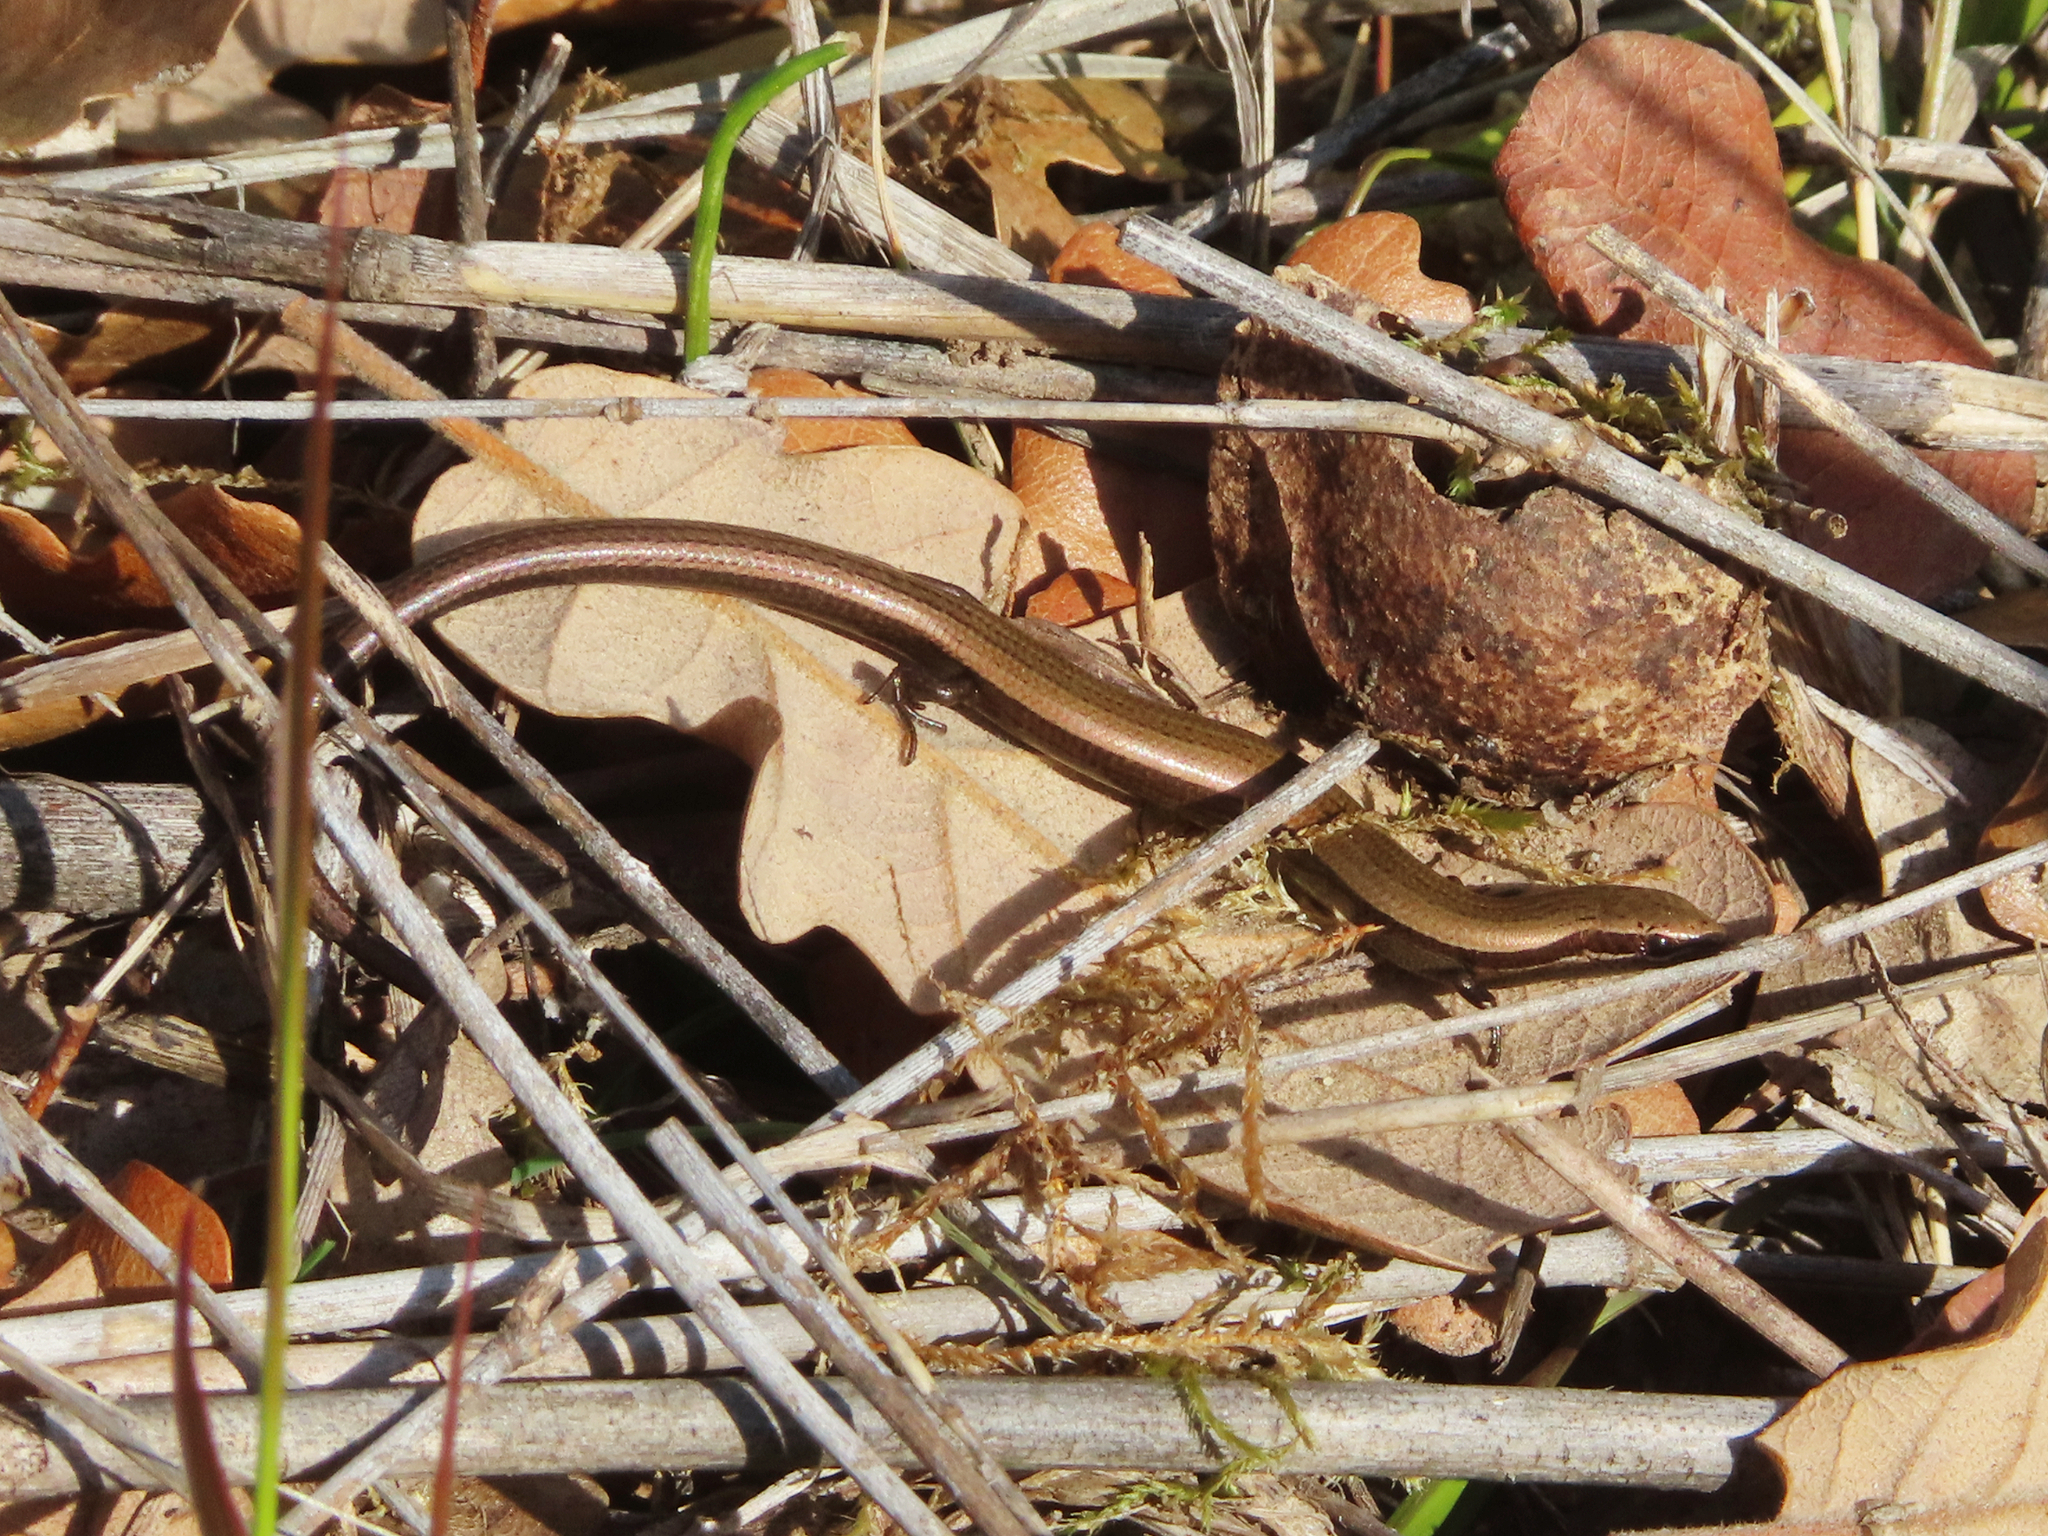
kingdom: Animalia
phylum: Chordata
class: Squamata
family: Scincidae
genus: Ablepharus
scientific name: Ablepharus kitaibelii
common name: Juniper skink
